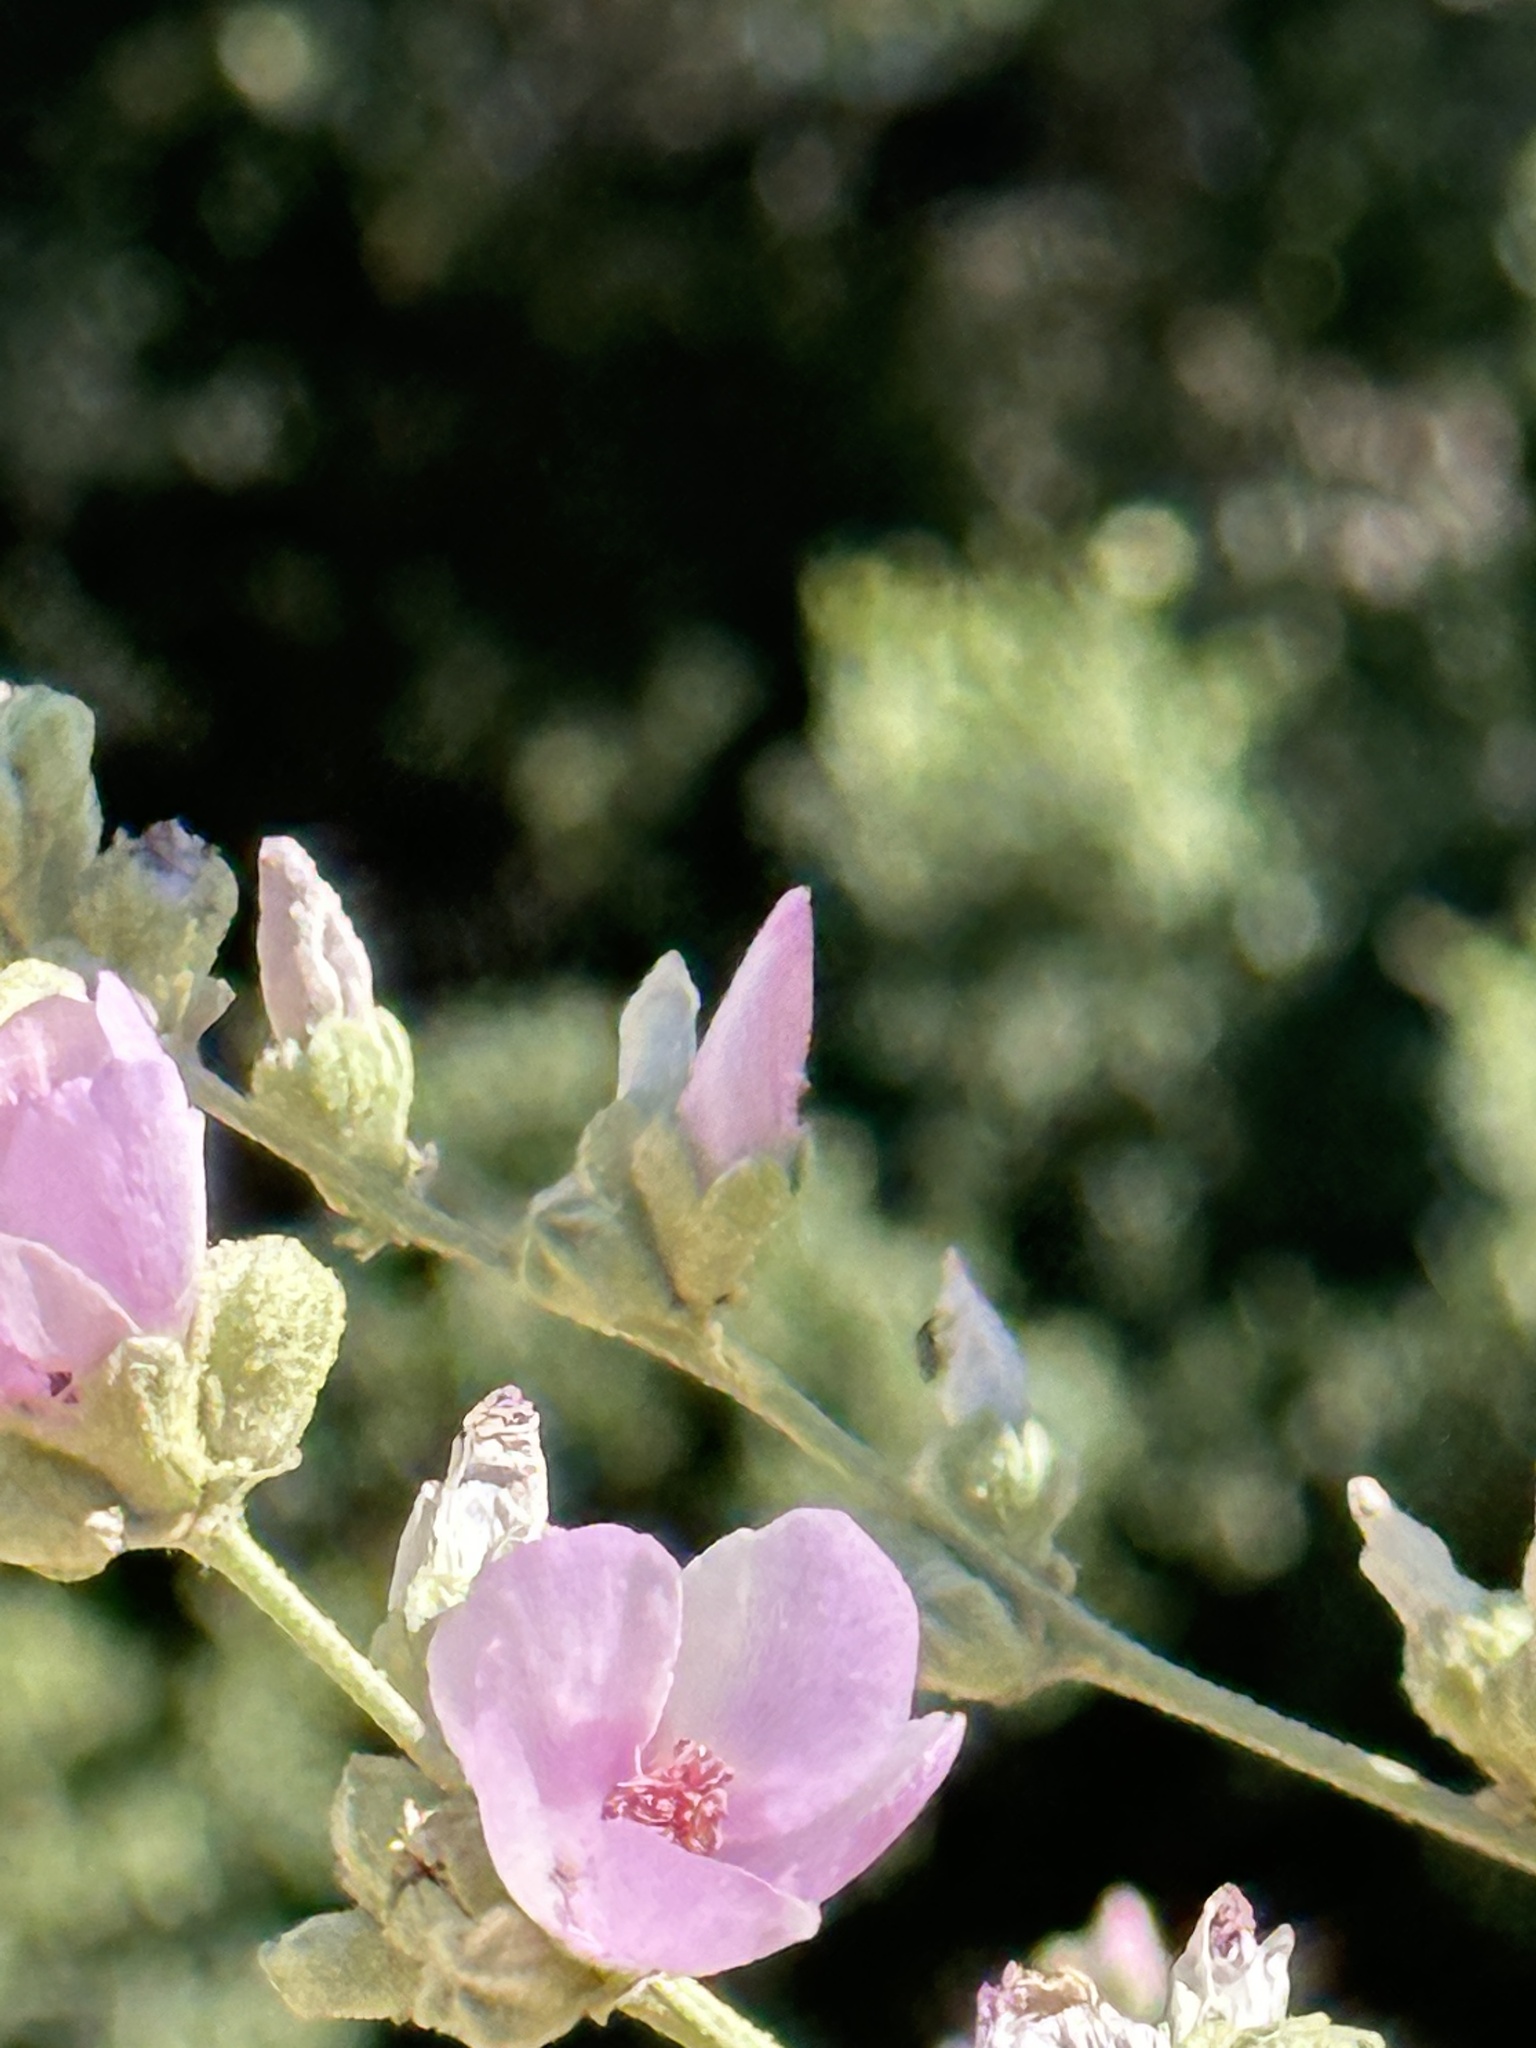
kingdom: Plantae
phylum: Tracheophyta
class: Magnoliopsida
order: Malvales
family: Malvaceae
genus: Malacothamnus
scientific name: Malacothamnus fasciculatus
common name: Sant cruz island bush-mallow
